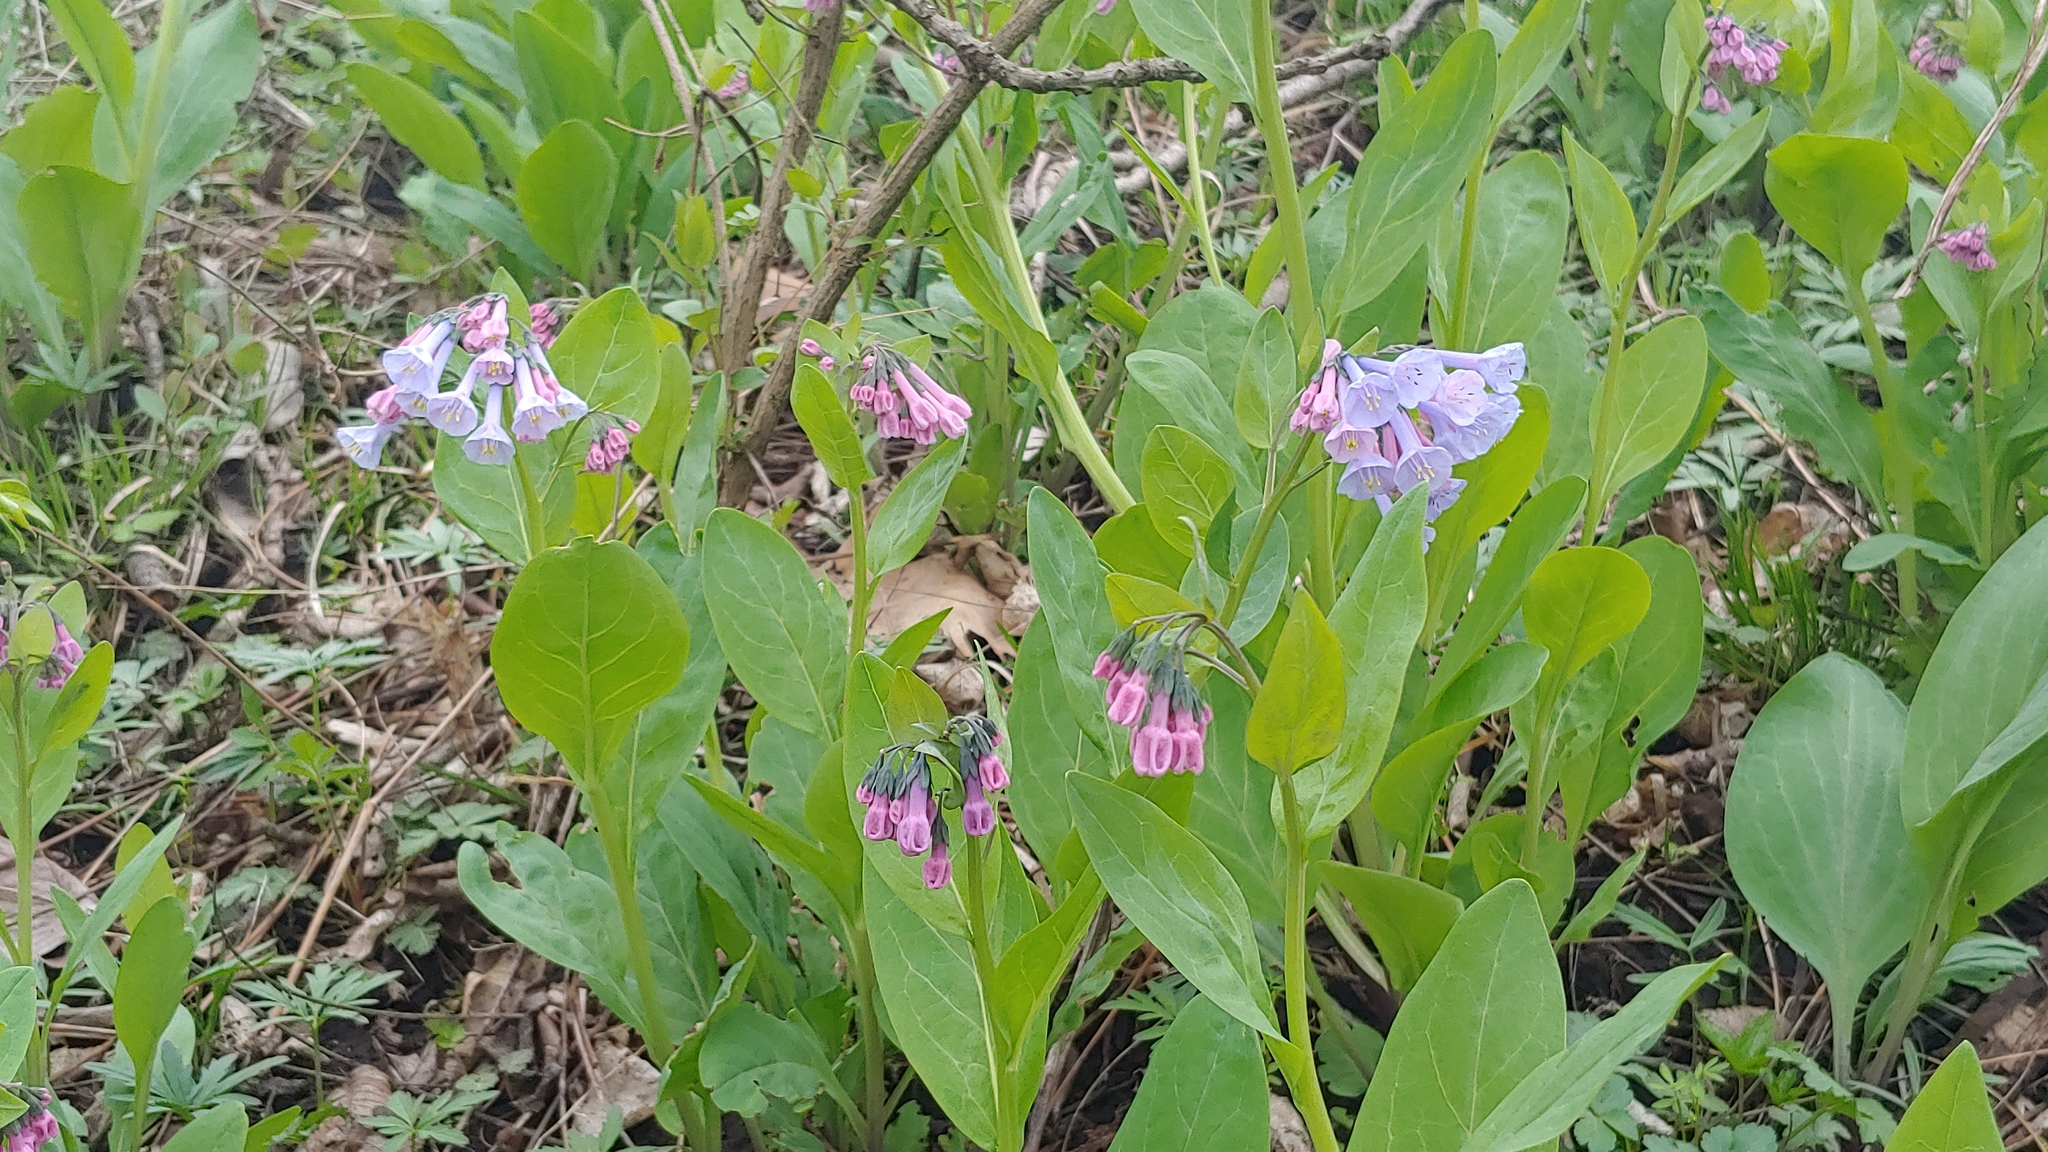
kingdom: Plantae
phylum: Tracheophyta
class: Magnoliopsida
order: Boraginales
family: Boraginaceae
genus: Mertensia
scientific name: Mertensia virginica
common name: Virginia bluebells
